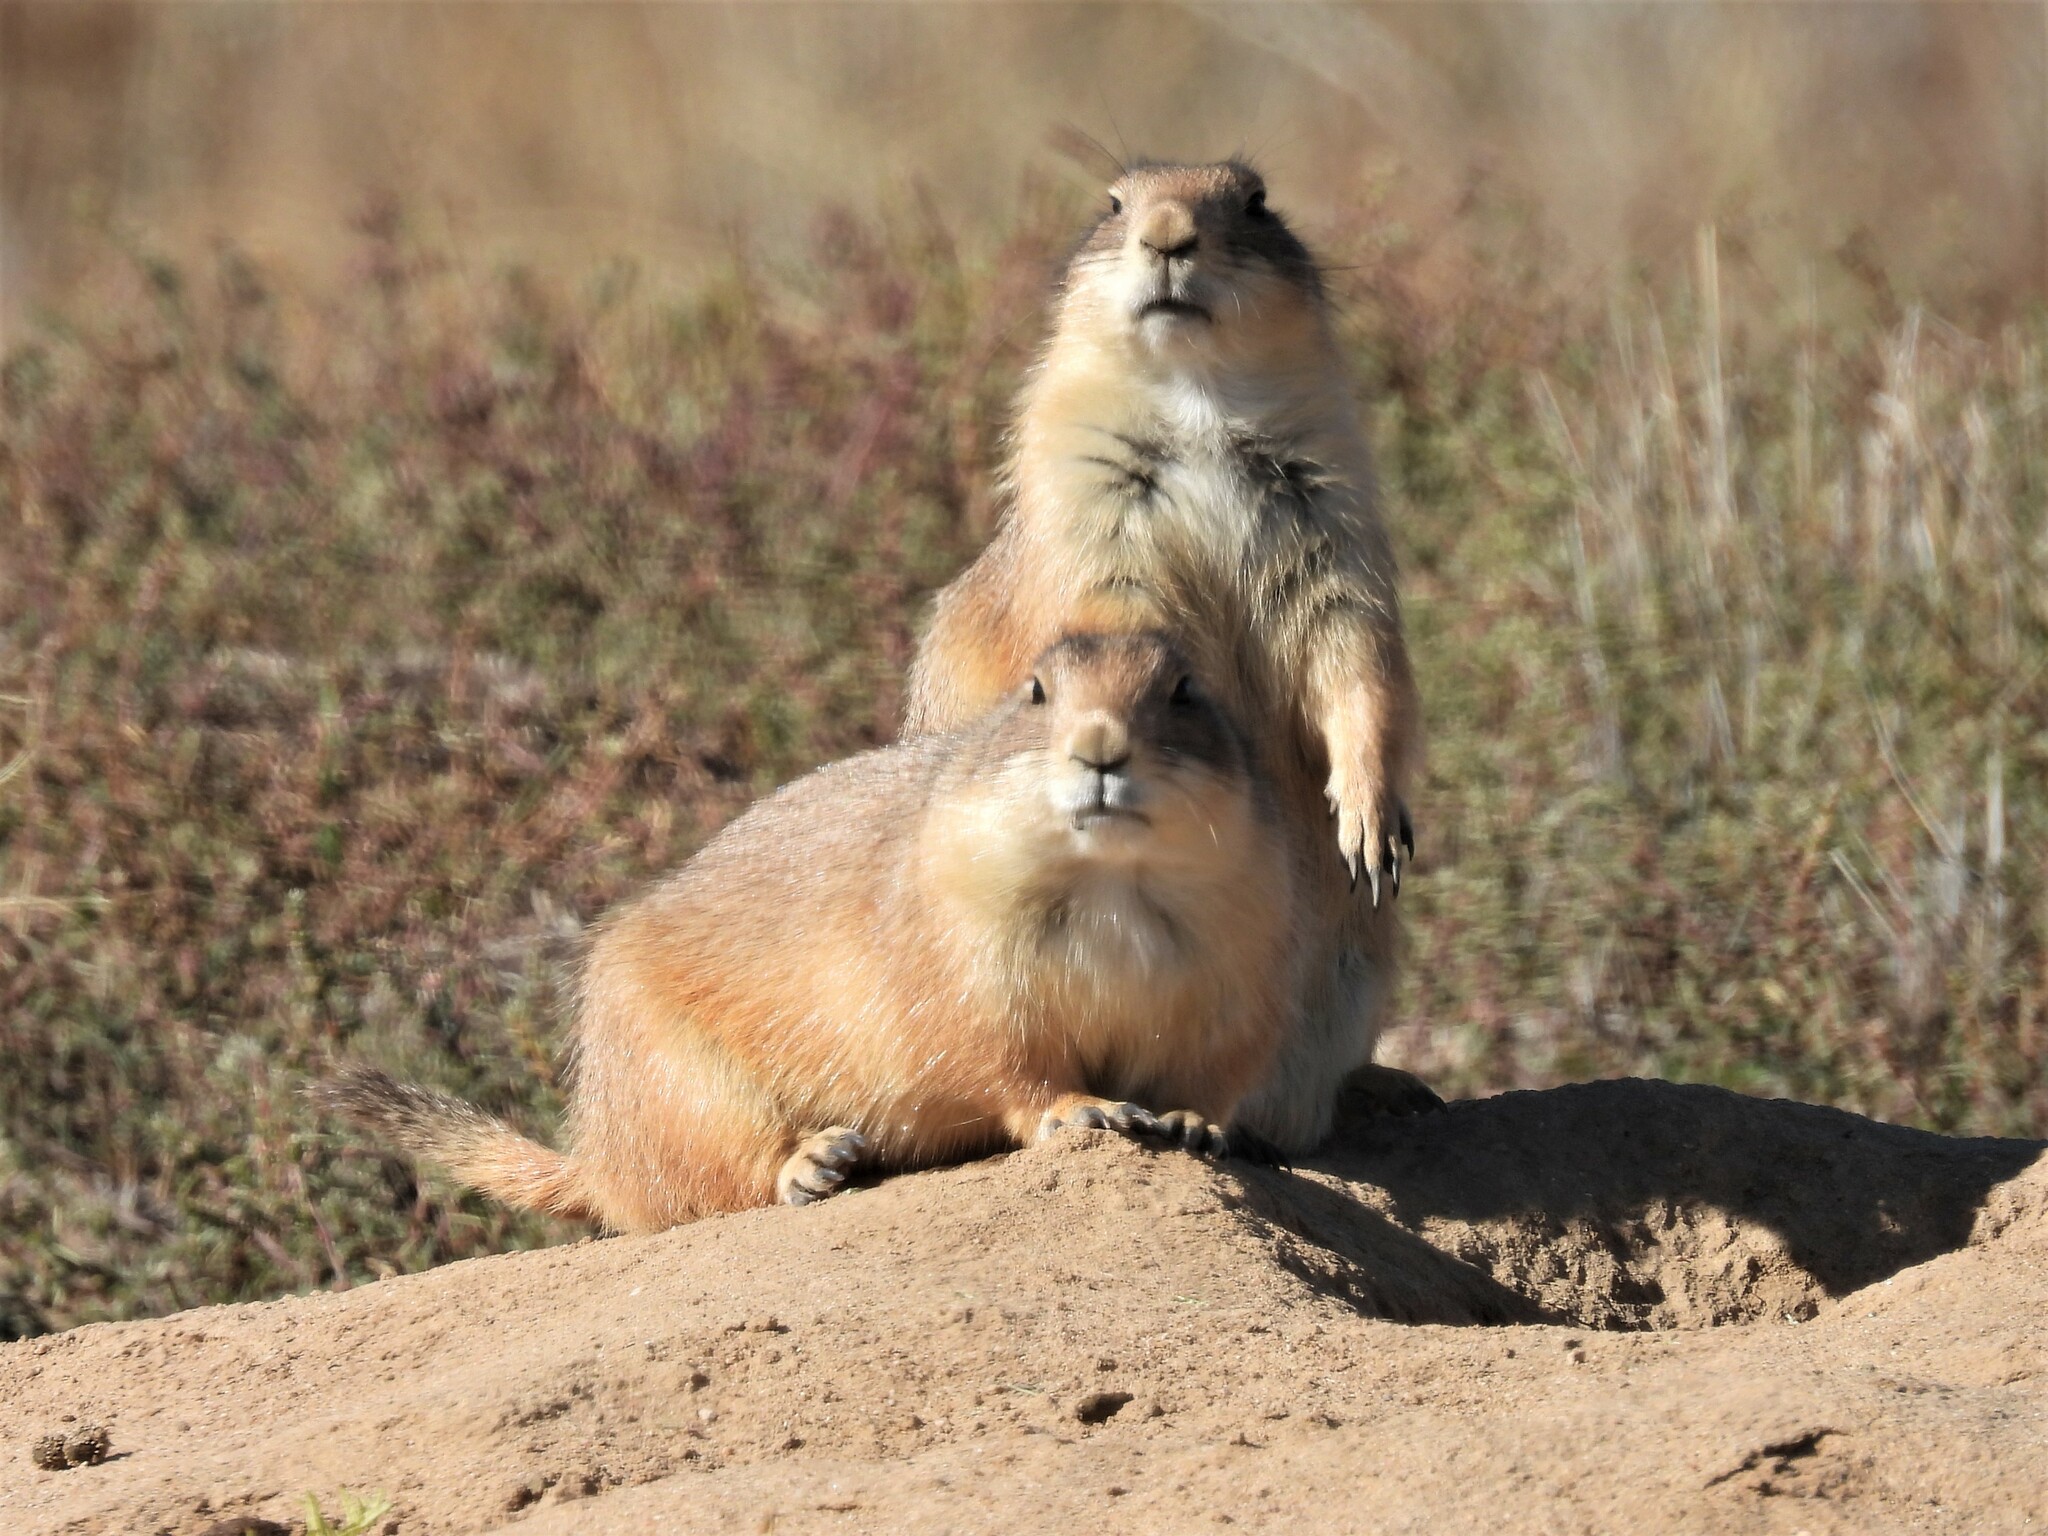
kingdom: Animalia
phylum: Chordata
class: Mammalia
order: Rodentia
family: Sciuridae
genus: Cynomys
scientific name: Cynomys ludovicianus
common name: Black-tailed prairie dog
